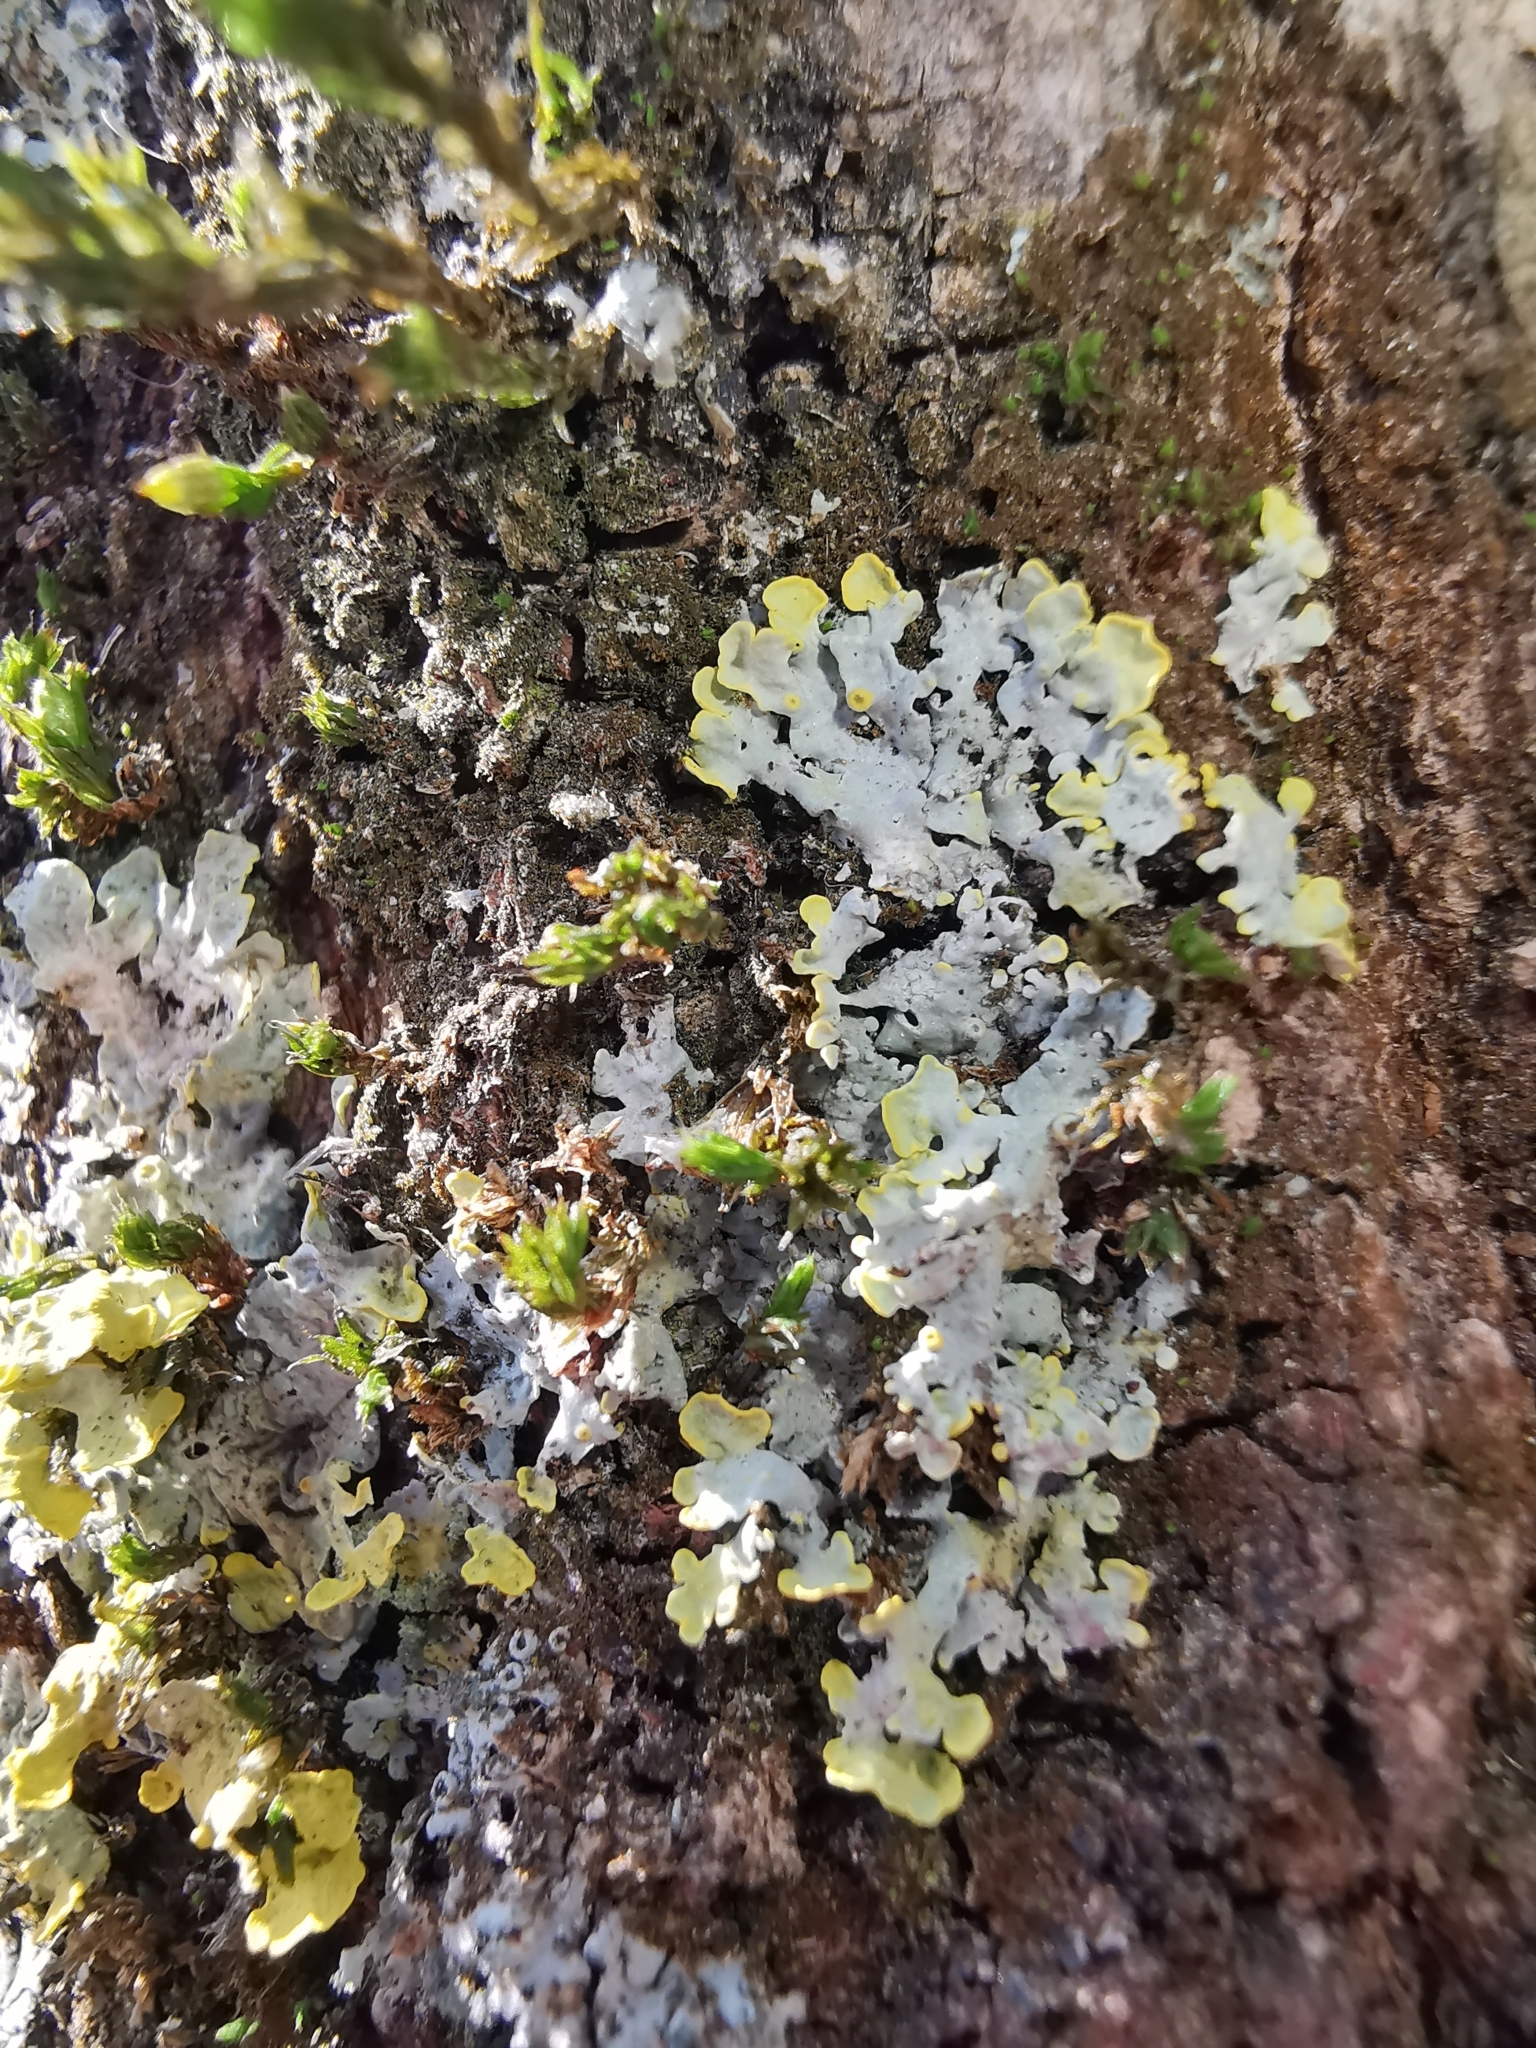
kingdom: Fungi
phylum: Ascomycota
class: Lecanoromycetes
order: Teloschistales
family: Teloschistaceae
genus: Xanthoria
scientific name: Xanthoria parietina
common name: Common orange lichen
